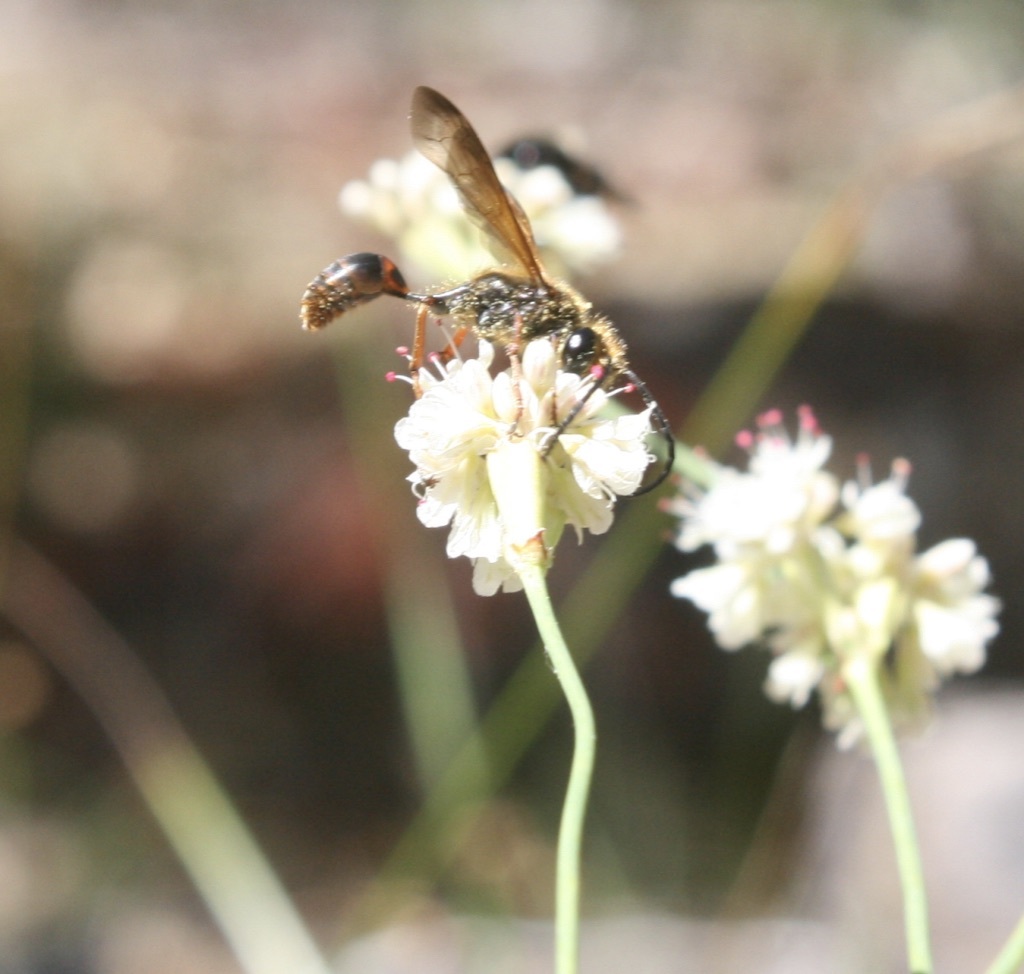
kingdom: Animalia
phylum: Arthropoda
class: Insecta
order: Hymenoptera
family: Sphecidae
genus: Isodontia
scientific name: Isodontia elegans
